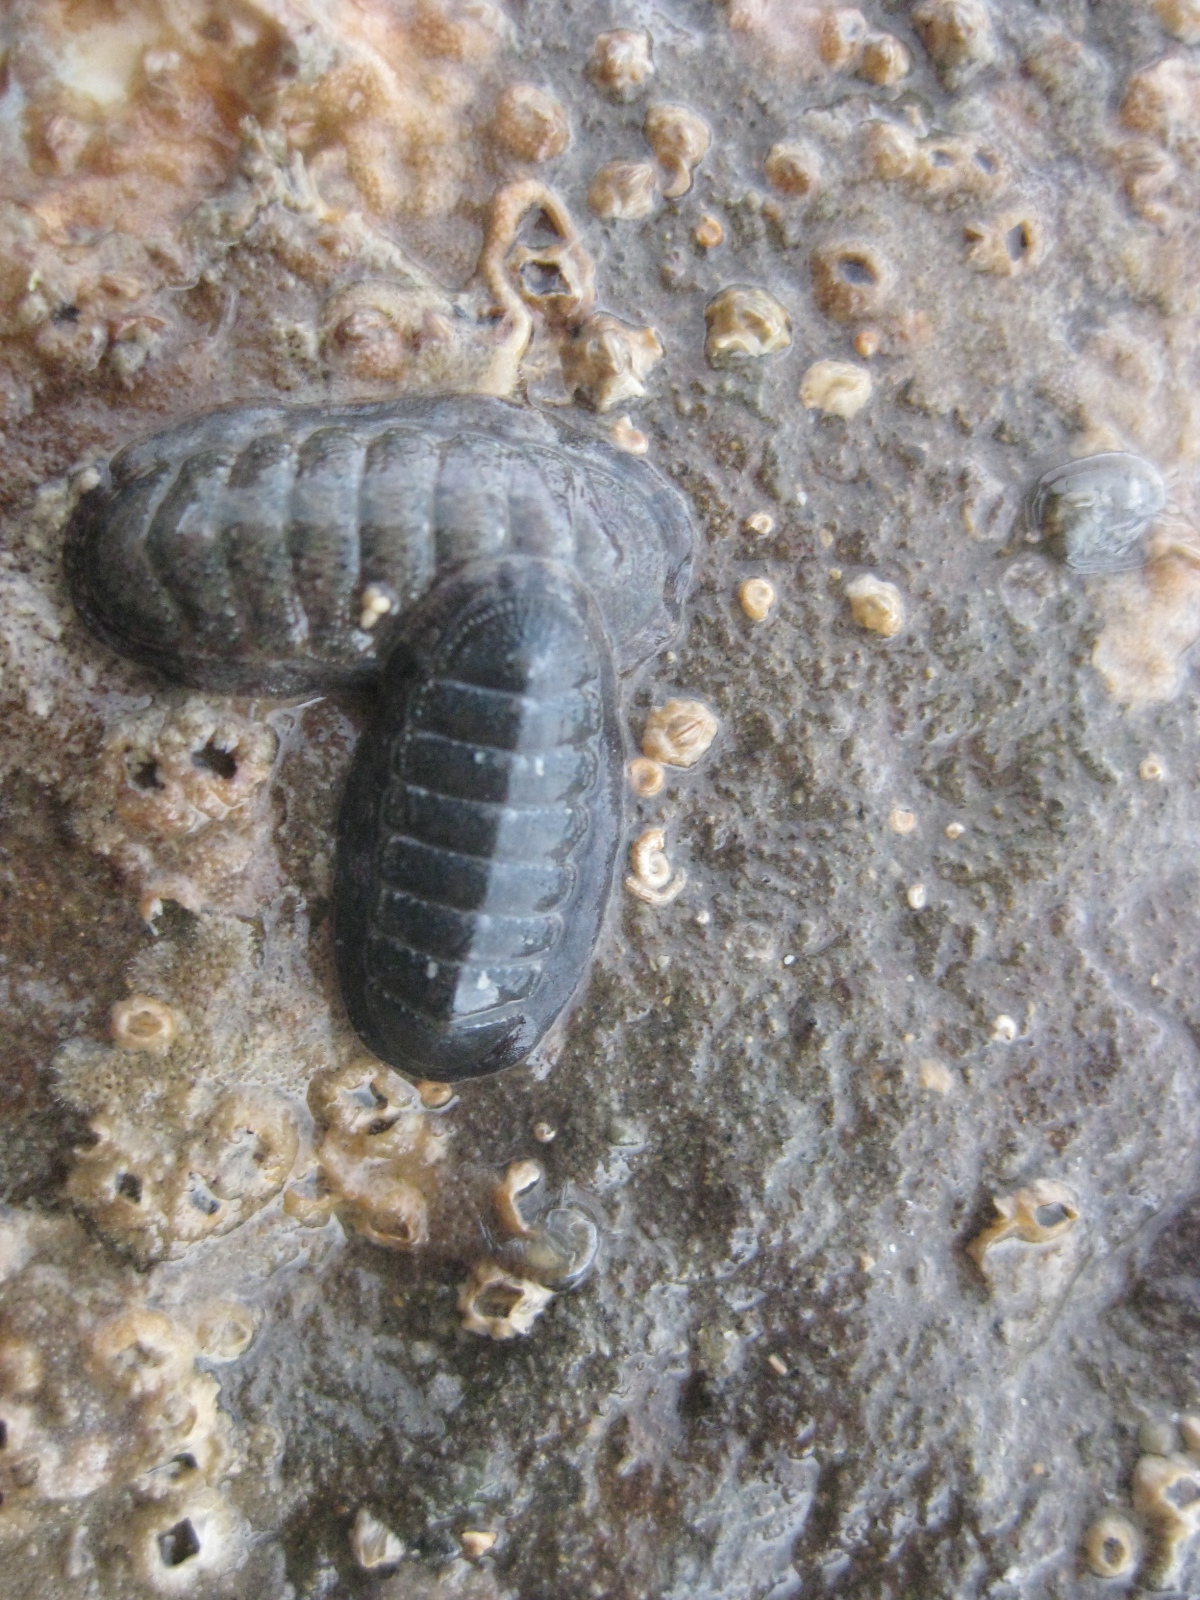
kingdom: Animalia
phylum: Mollusca
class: Polyplacophora
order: Chitonida
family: Ischnochitonidae
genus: Ischnochiton
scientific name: Ischnochiton maorianus
